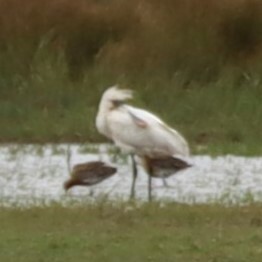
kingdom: Animalia
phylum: Chordata
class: Aves
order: Pelecaniformes
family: Threskiornithidae
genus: Platalea
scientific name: Platalea leucorodia
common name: Eurasian spoonbill
